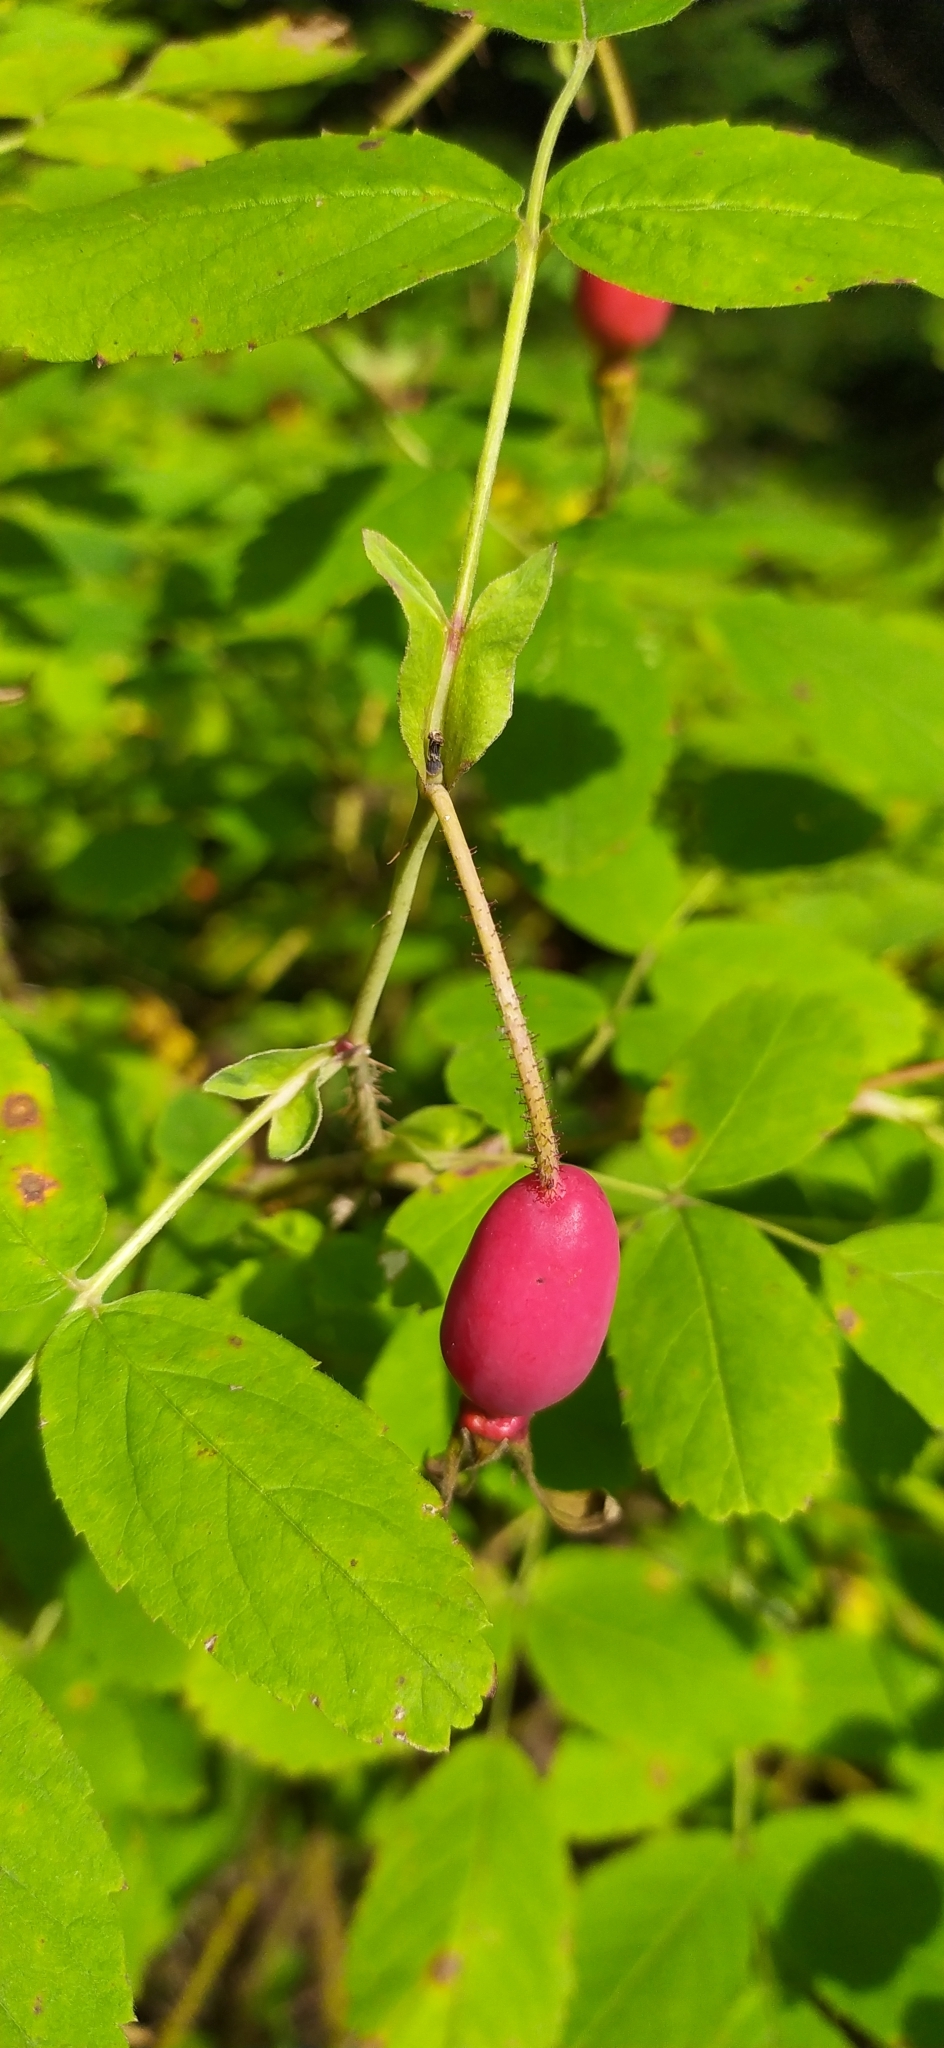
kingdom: Plantae
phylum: Tracheophyta
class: Magnoliopsida
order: Rosales
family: Rosaceae
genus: Rosa
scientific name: Rosa acicularis
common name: Prickly rose
